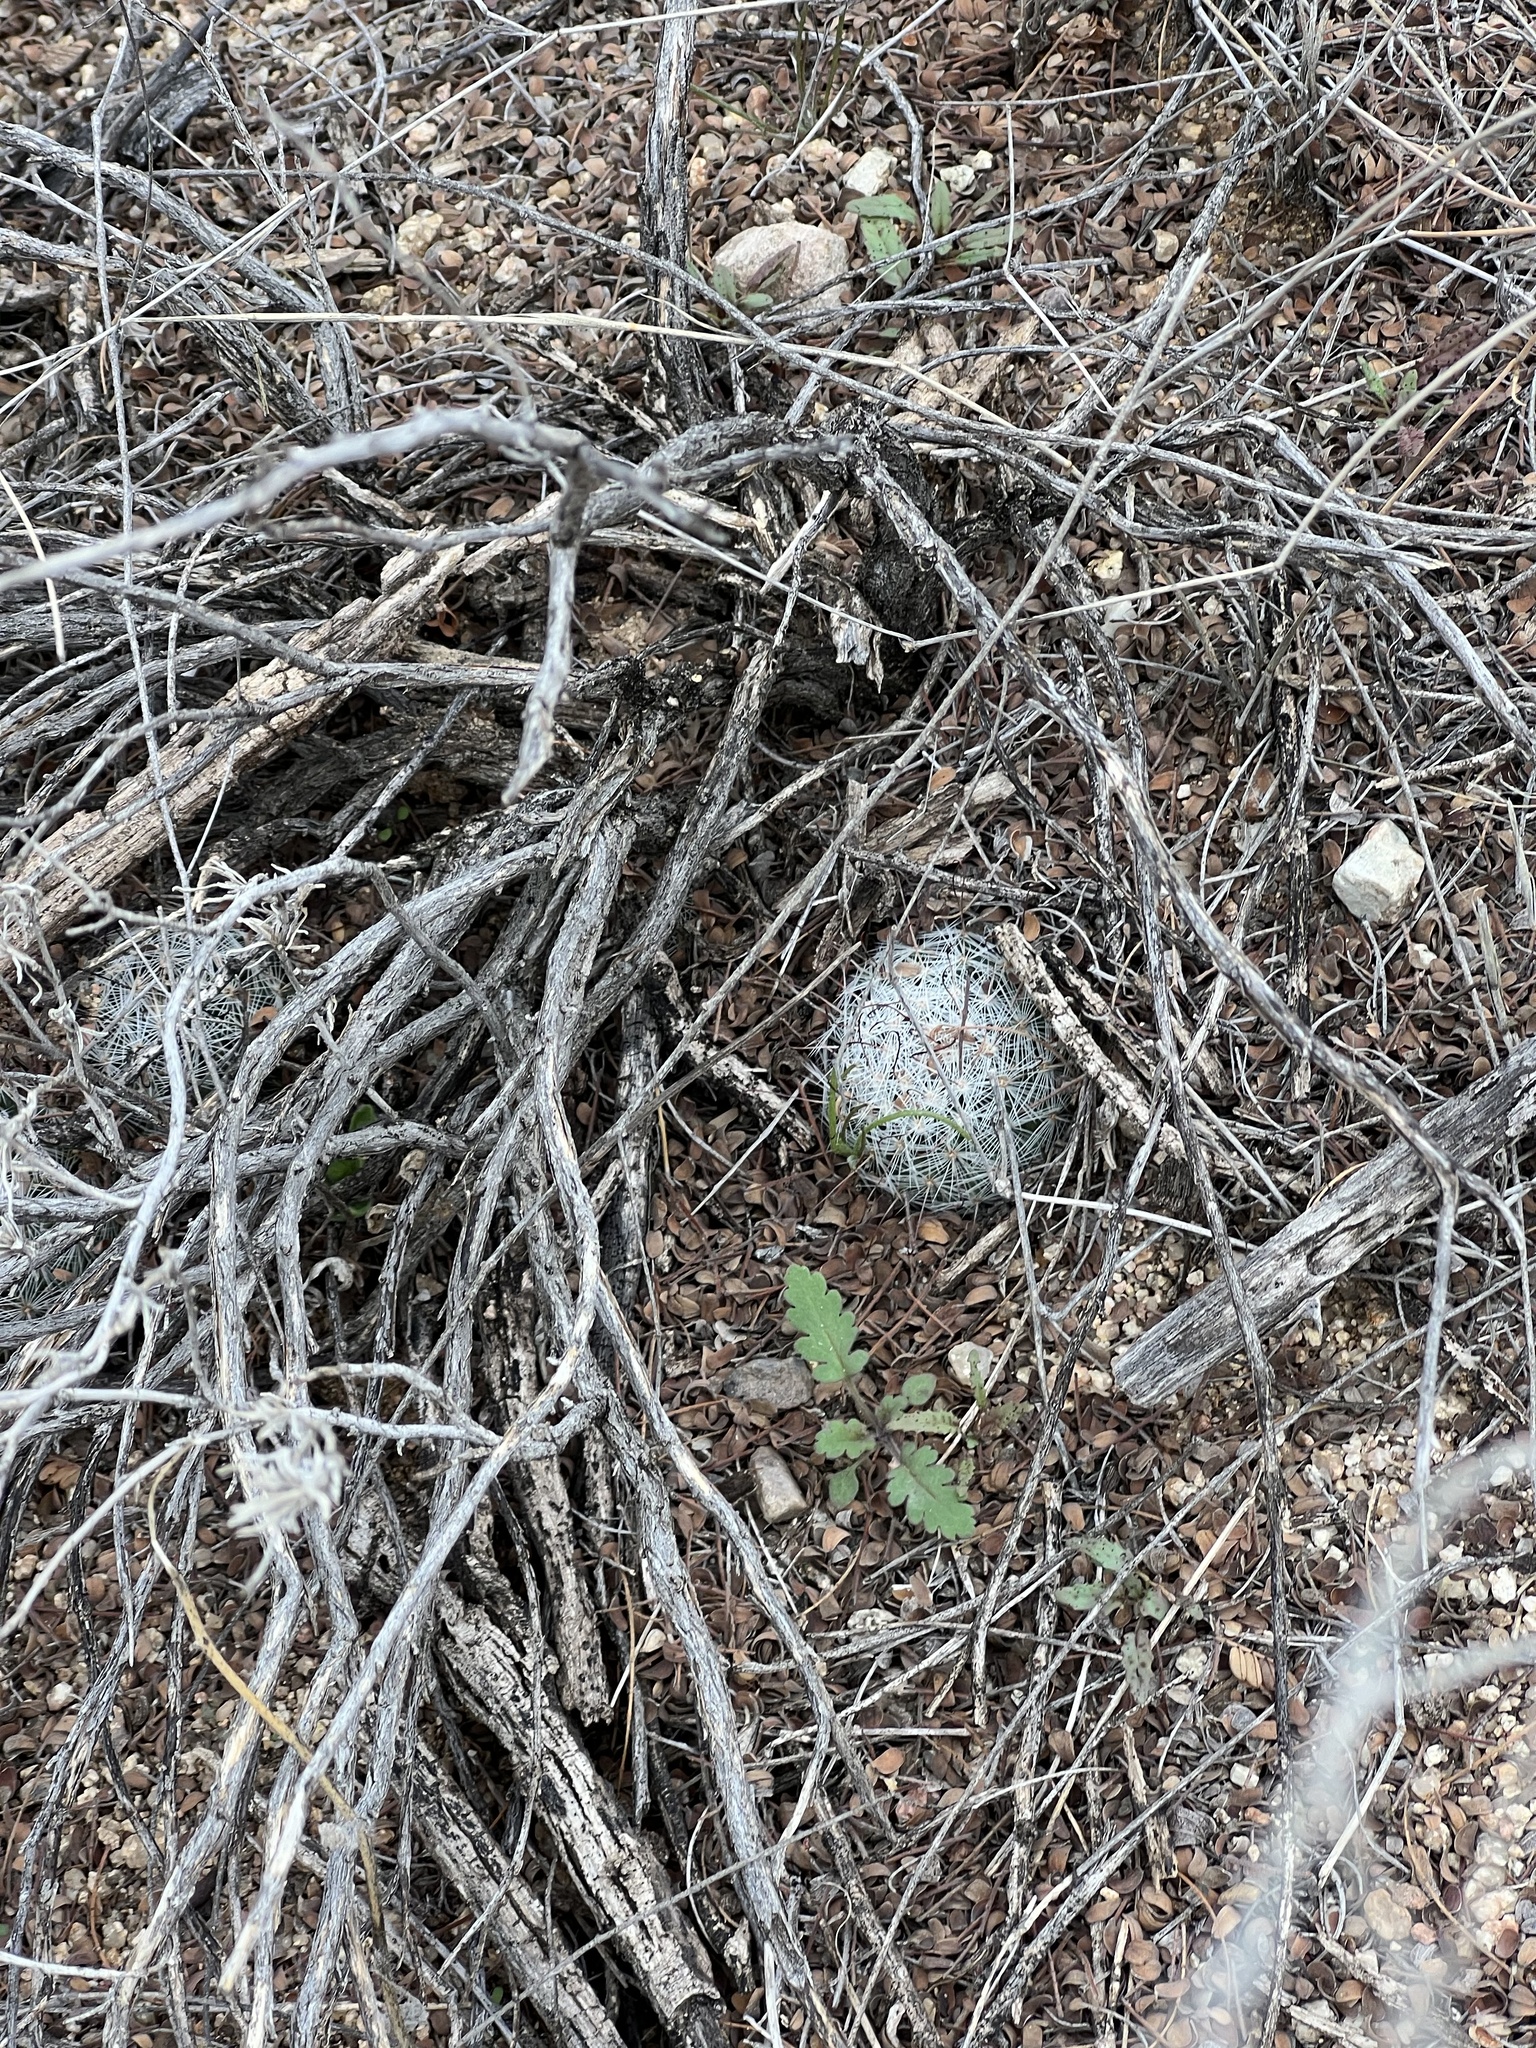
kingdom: Plantae
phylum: Tracheophyta
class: Magnoliopsida
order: Caryophyllales
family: Cactaceae
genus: Cochemiea
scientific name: Cochemiea grahamii
